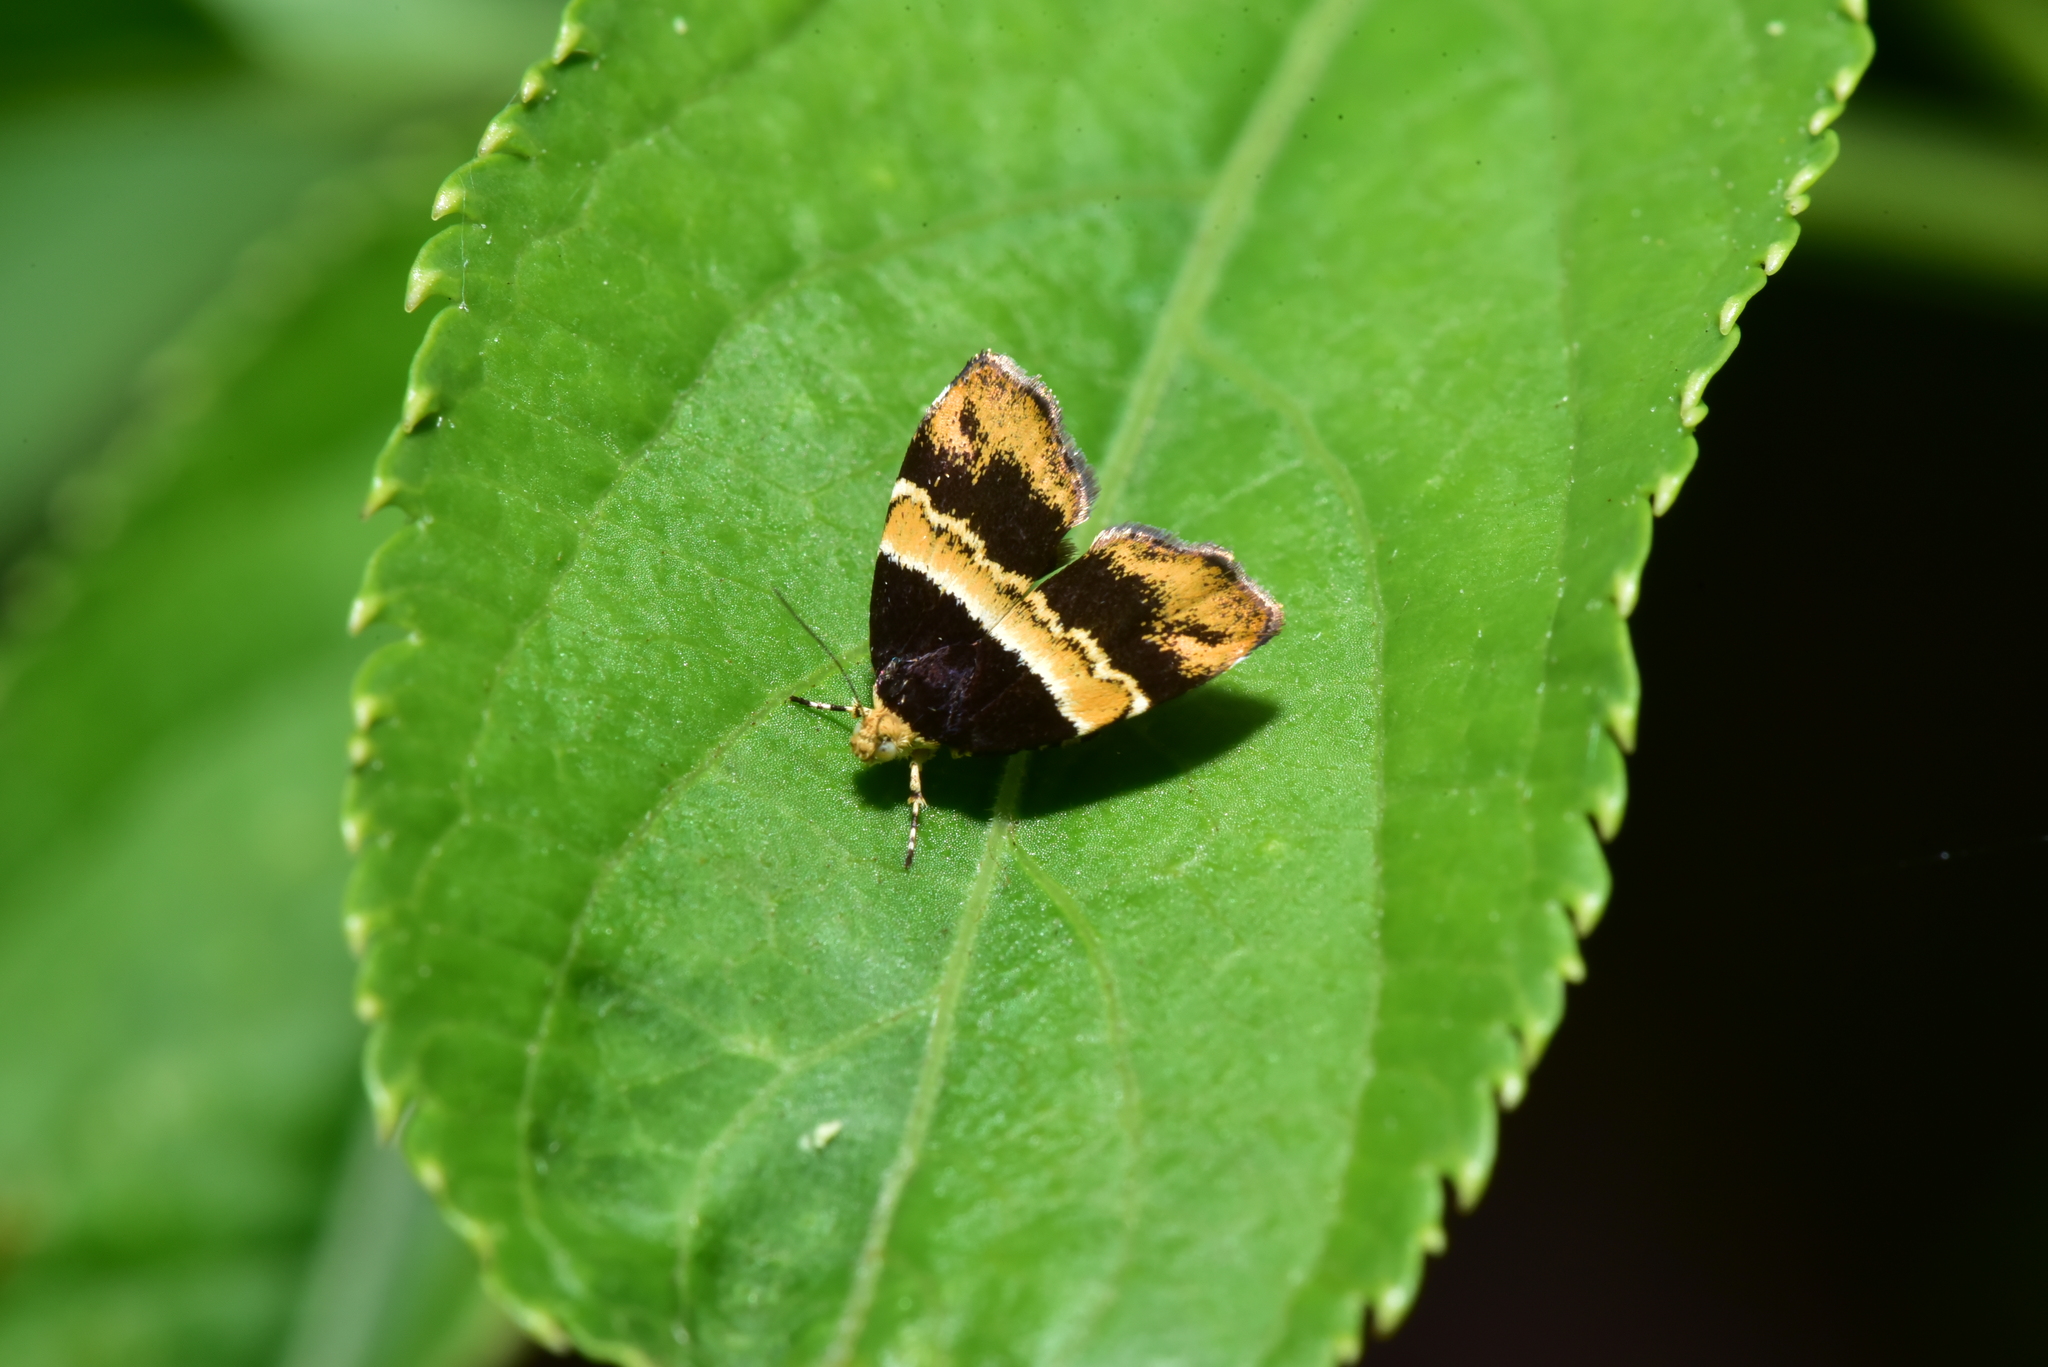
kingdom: Animalia
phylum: Arthropoda
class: Insecta
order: Lepidoptera
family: Choreutidae
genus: Choreutis
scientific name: Choreutis basalis
